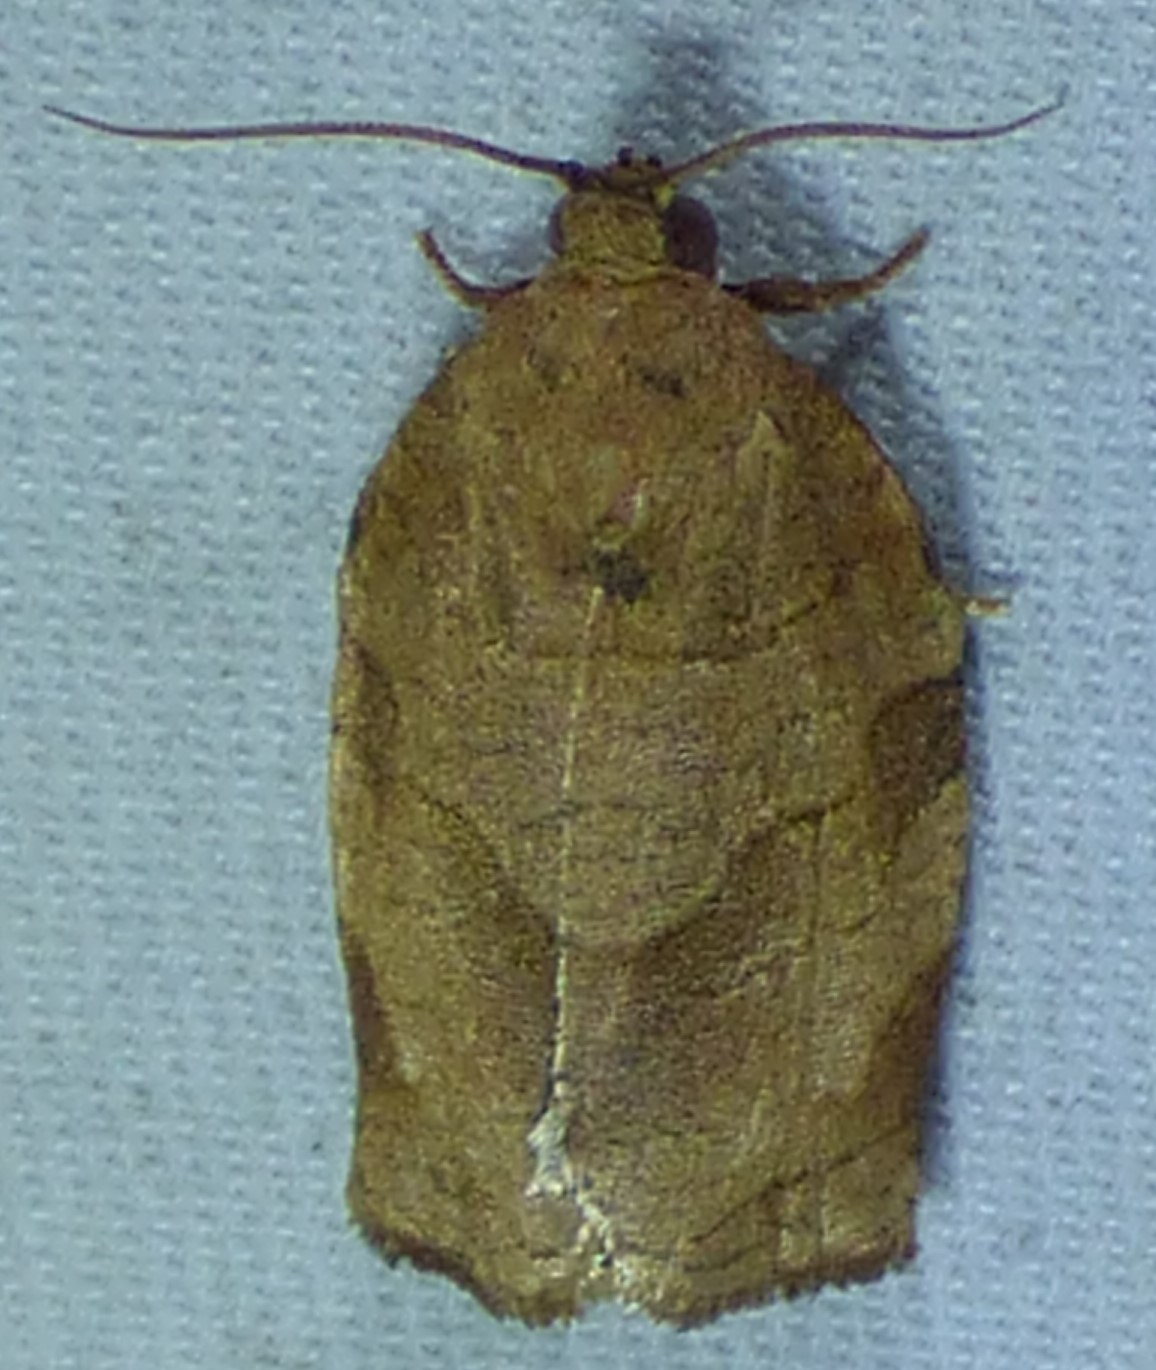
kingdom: Animalia
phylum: Arthropoda
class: Insecta
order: Lepidoptera
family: Tortricidae
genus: Choristoneura
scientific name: Choristoneura rosaceana
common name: Oblique-banded leafroller moth
